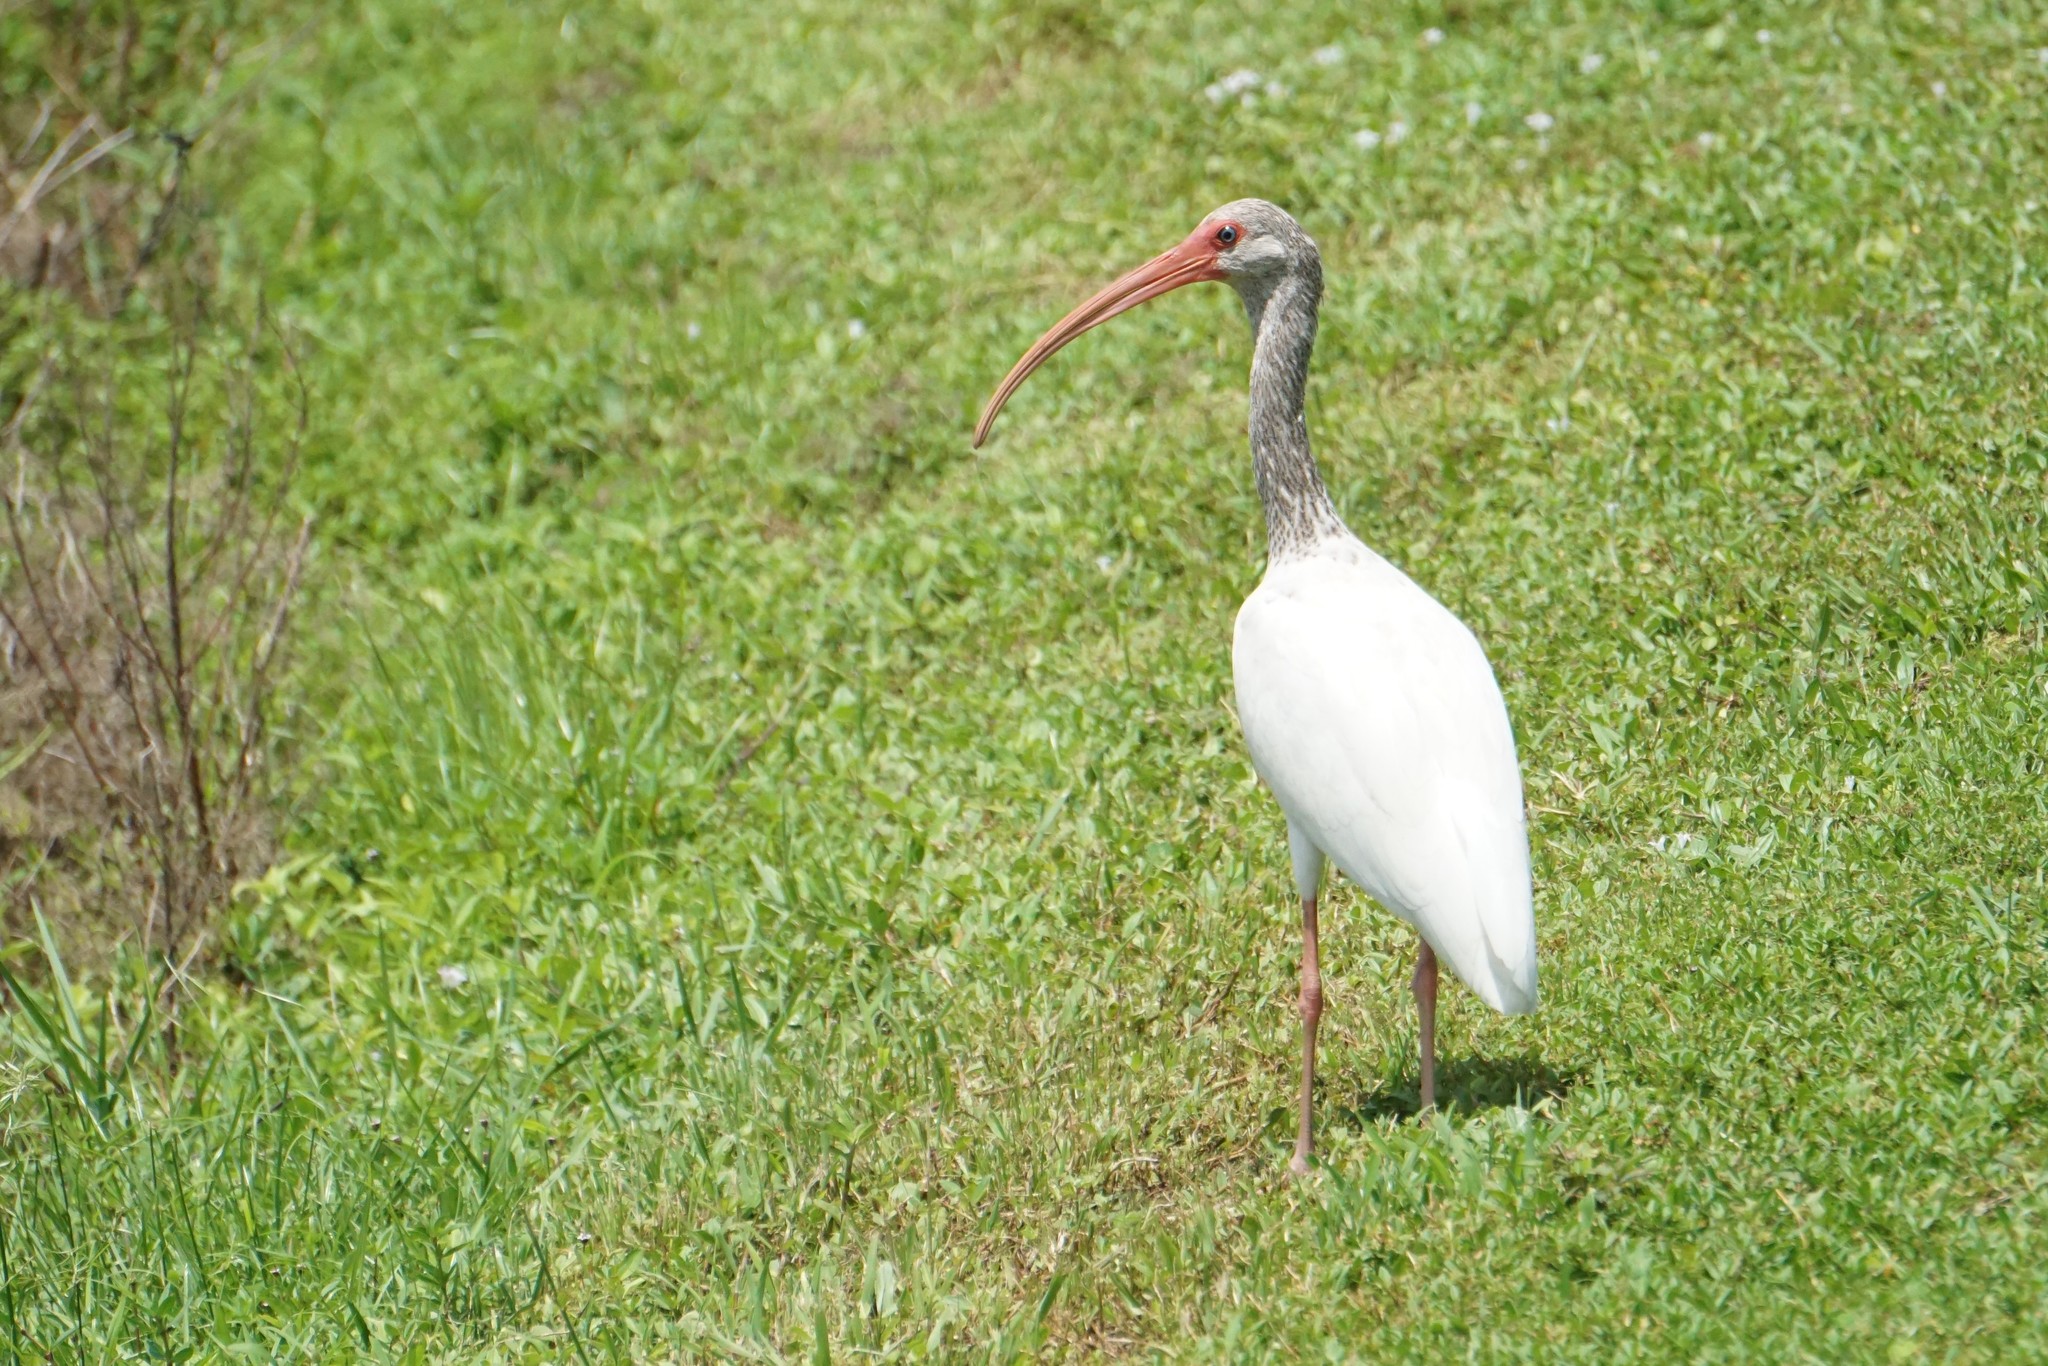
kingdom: Animalia
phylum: Chordata
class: Aves
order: Pelecaniformes
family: Threskiornithidae
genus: Eudocimus
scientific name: Eudocimus albus
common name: White ibis
